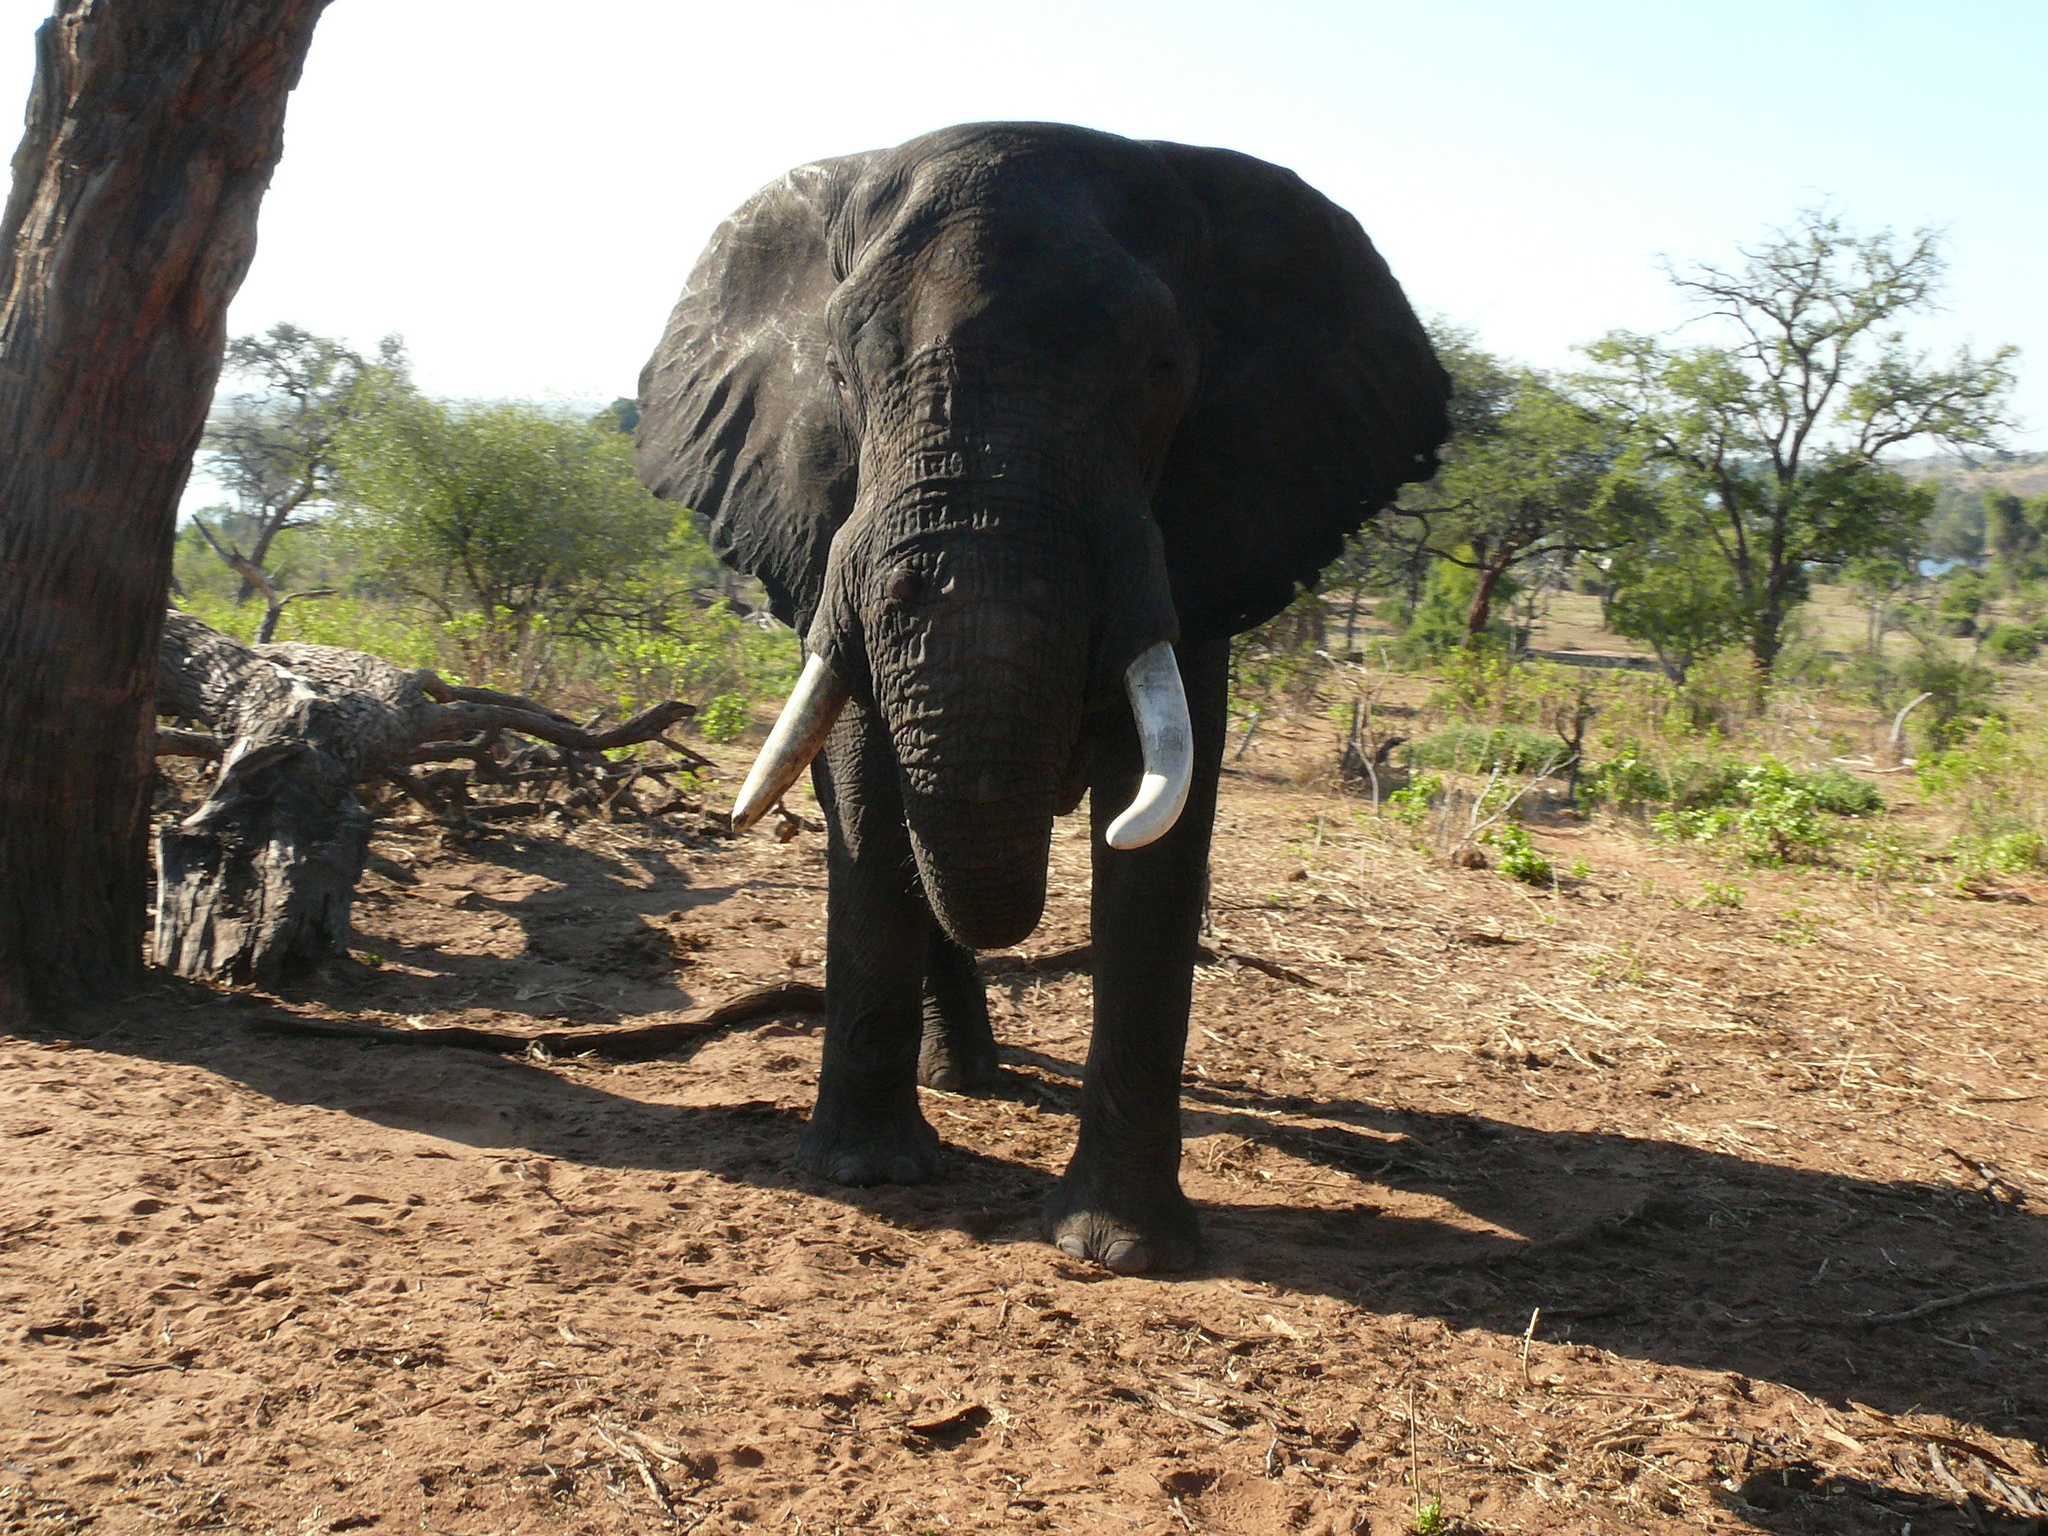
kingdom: Animalia
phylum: Chordata
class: Mammalia
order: Proboscidea
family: Elephantidae
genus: Loxodonta
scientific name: Loxodonta africana
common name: African elephant
